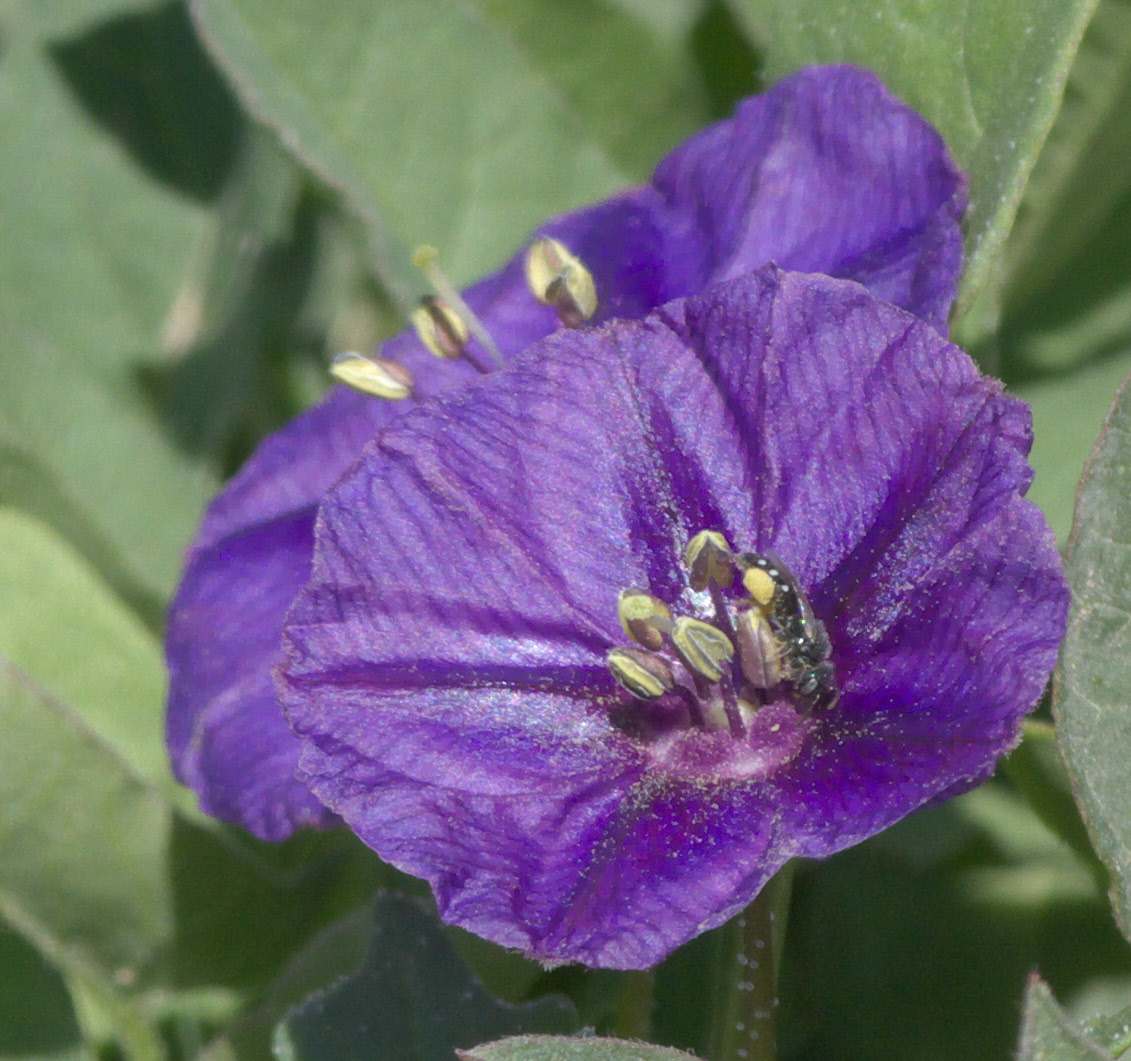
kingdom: Animalia
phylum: Arthropoda
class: Insecta
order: Hymenoptera
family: Andrenidae
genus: Perdita
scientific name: Perdita
